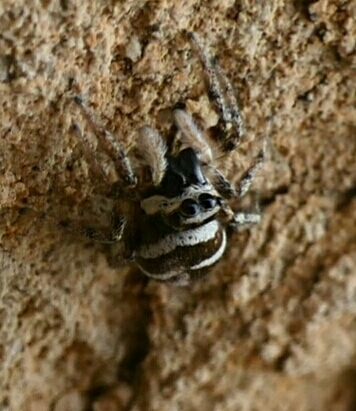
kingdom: Animalia
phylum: Arthropoda
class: Arachnida
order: Araneae
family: Salticidae
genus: Salticus
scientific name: Salticus scenicus
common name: Zebra jumper
